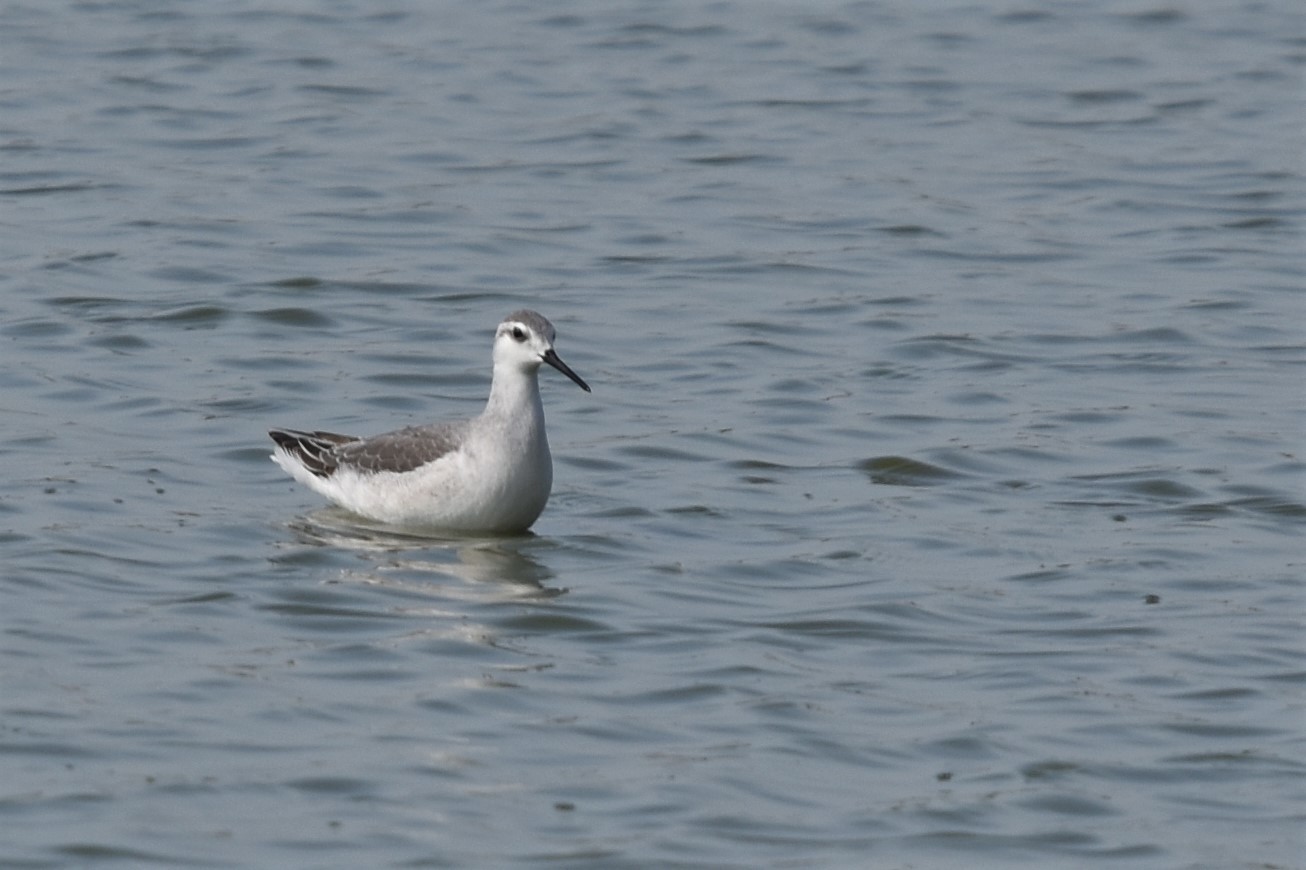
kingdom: Animalia
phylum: Chordata
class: Aves
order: Charadriiformes
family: Scolopacidae
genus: Phalaropus
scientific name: Phalaropus tricolor
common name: Wilson's phalarope
